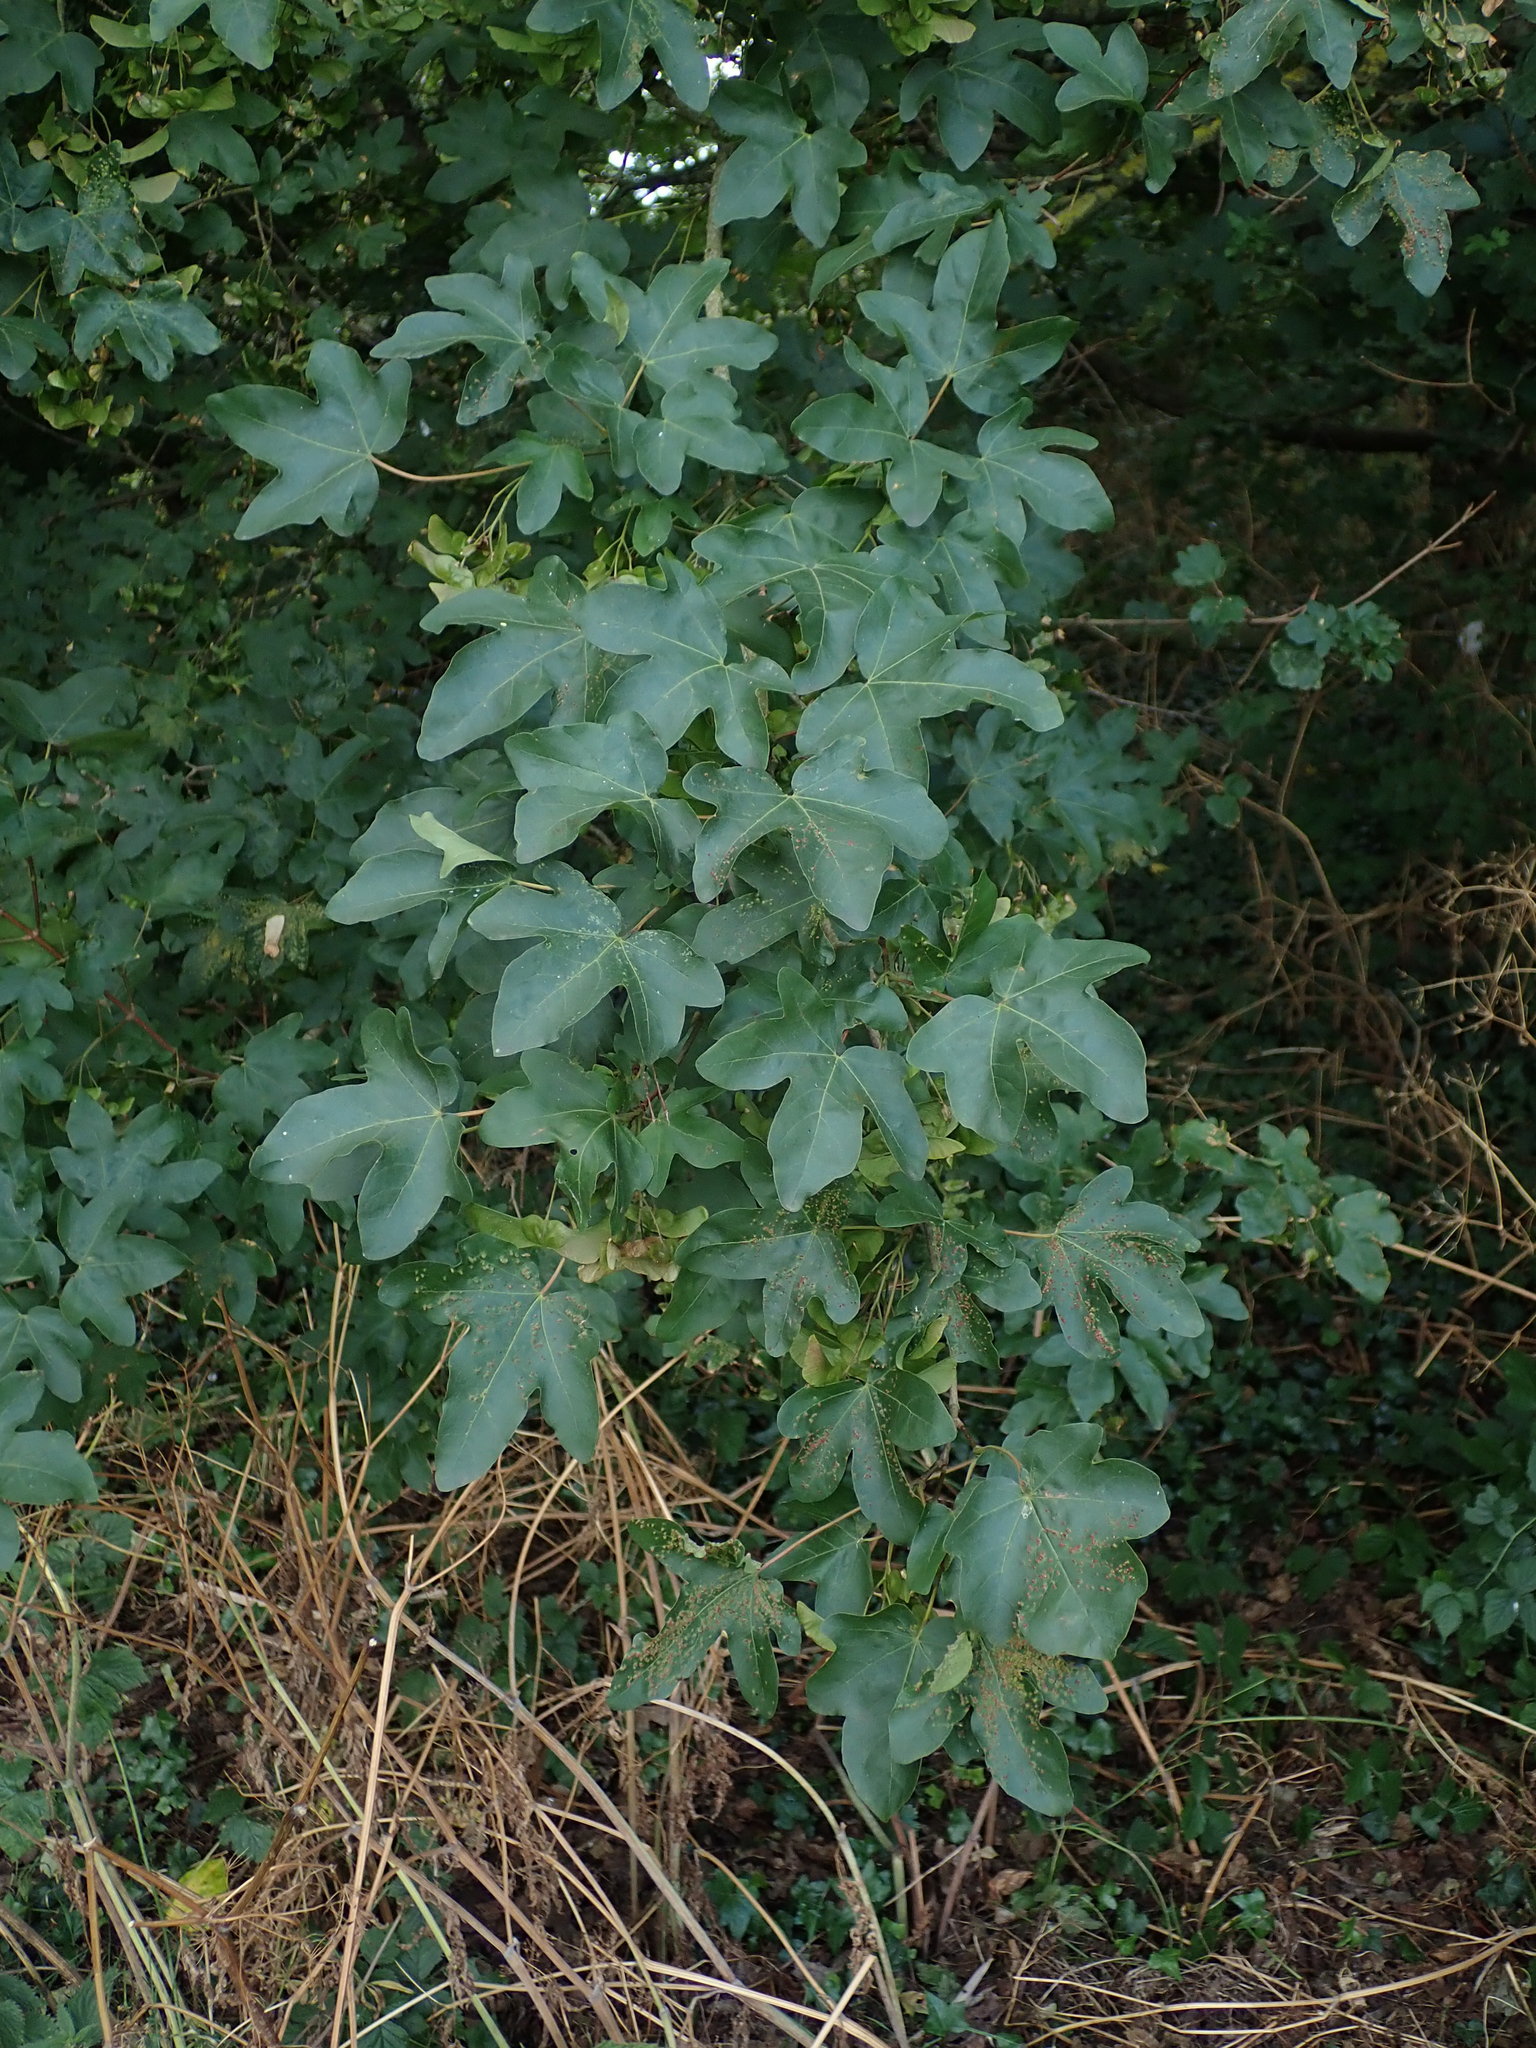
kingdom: Plantae
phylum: Tracheophyta
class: Magnoliopsida
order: Sapindales
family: Sapindaceae
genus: Acer
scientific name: Acer campestre
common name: Field maple
